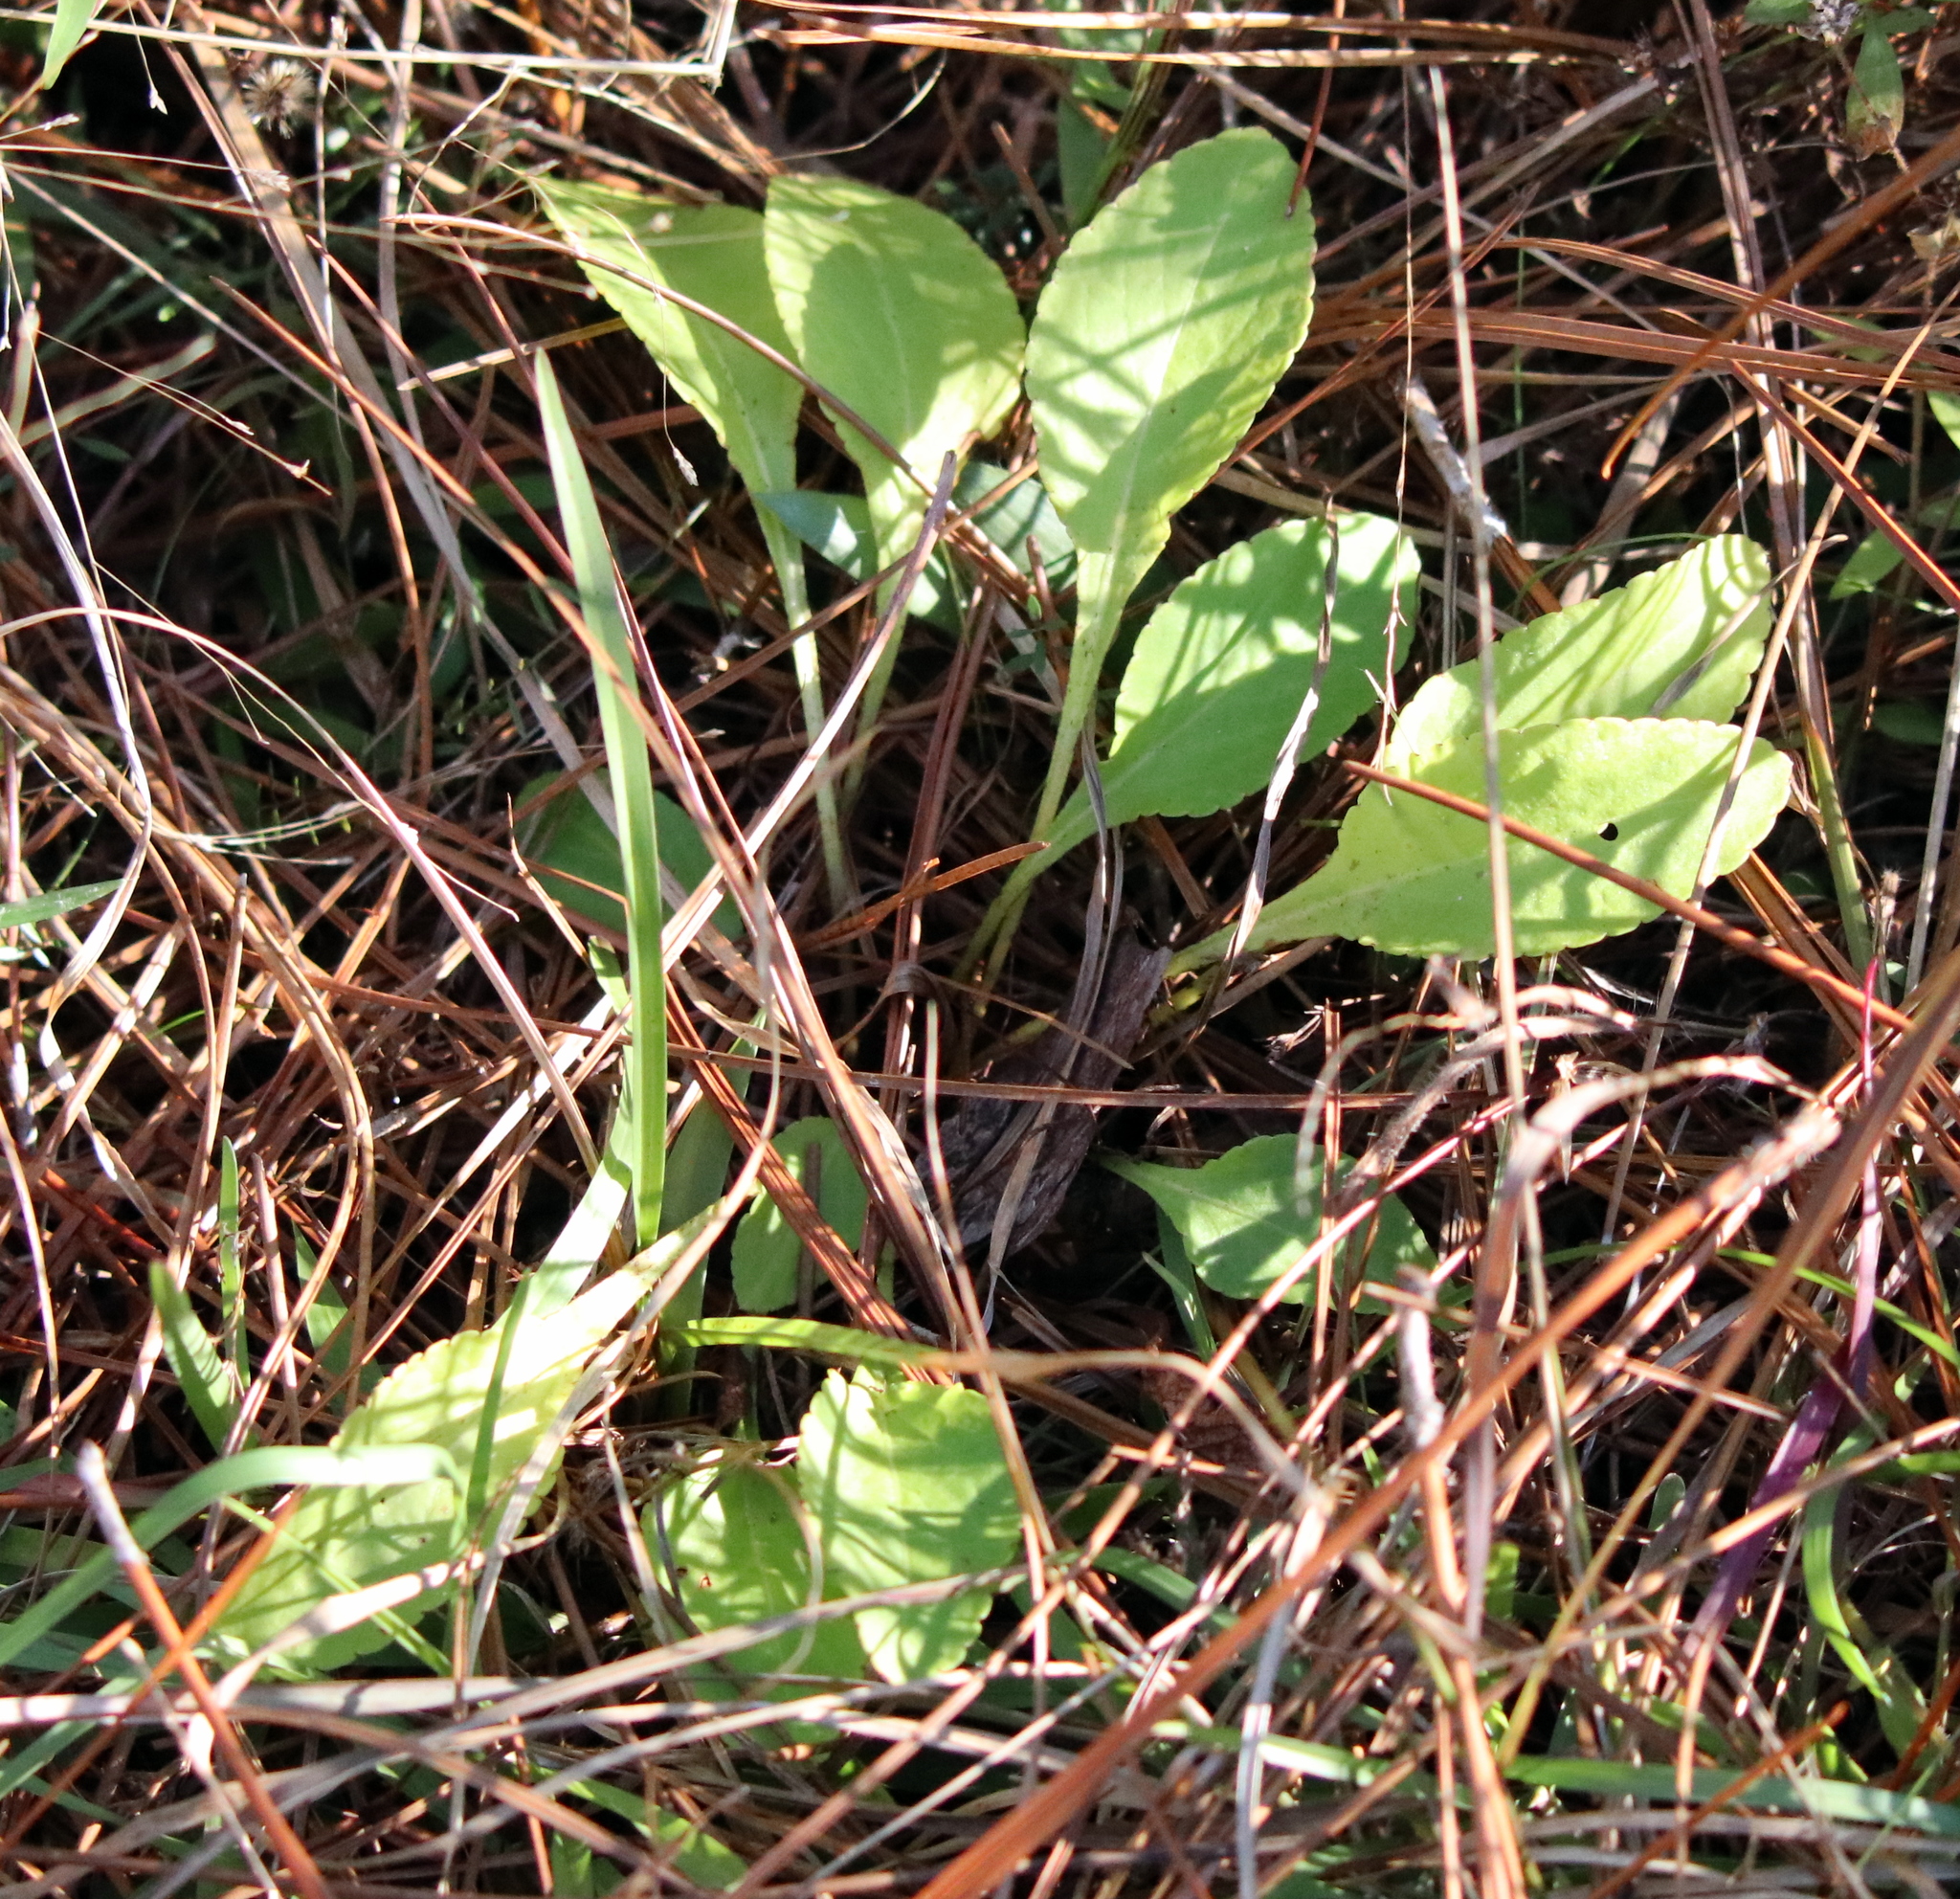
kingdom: Plantae
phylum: Tracheophyta
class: Magnoliopsida
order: Malpighiales
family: Violaceae
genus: Viola
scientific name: Viola primulifolia
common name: Primrose-leaf violet
